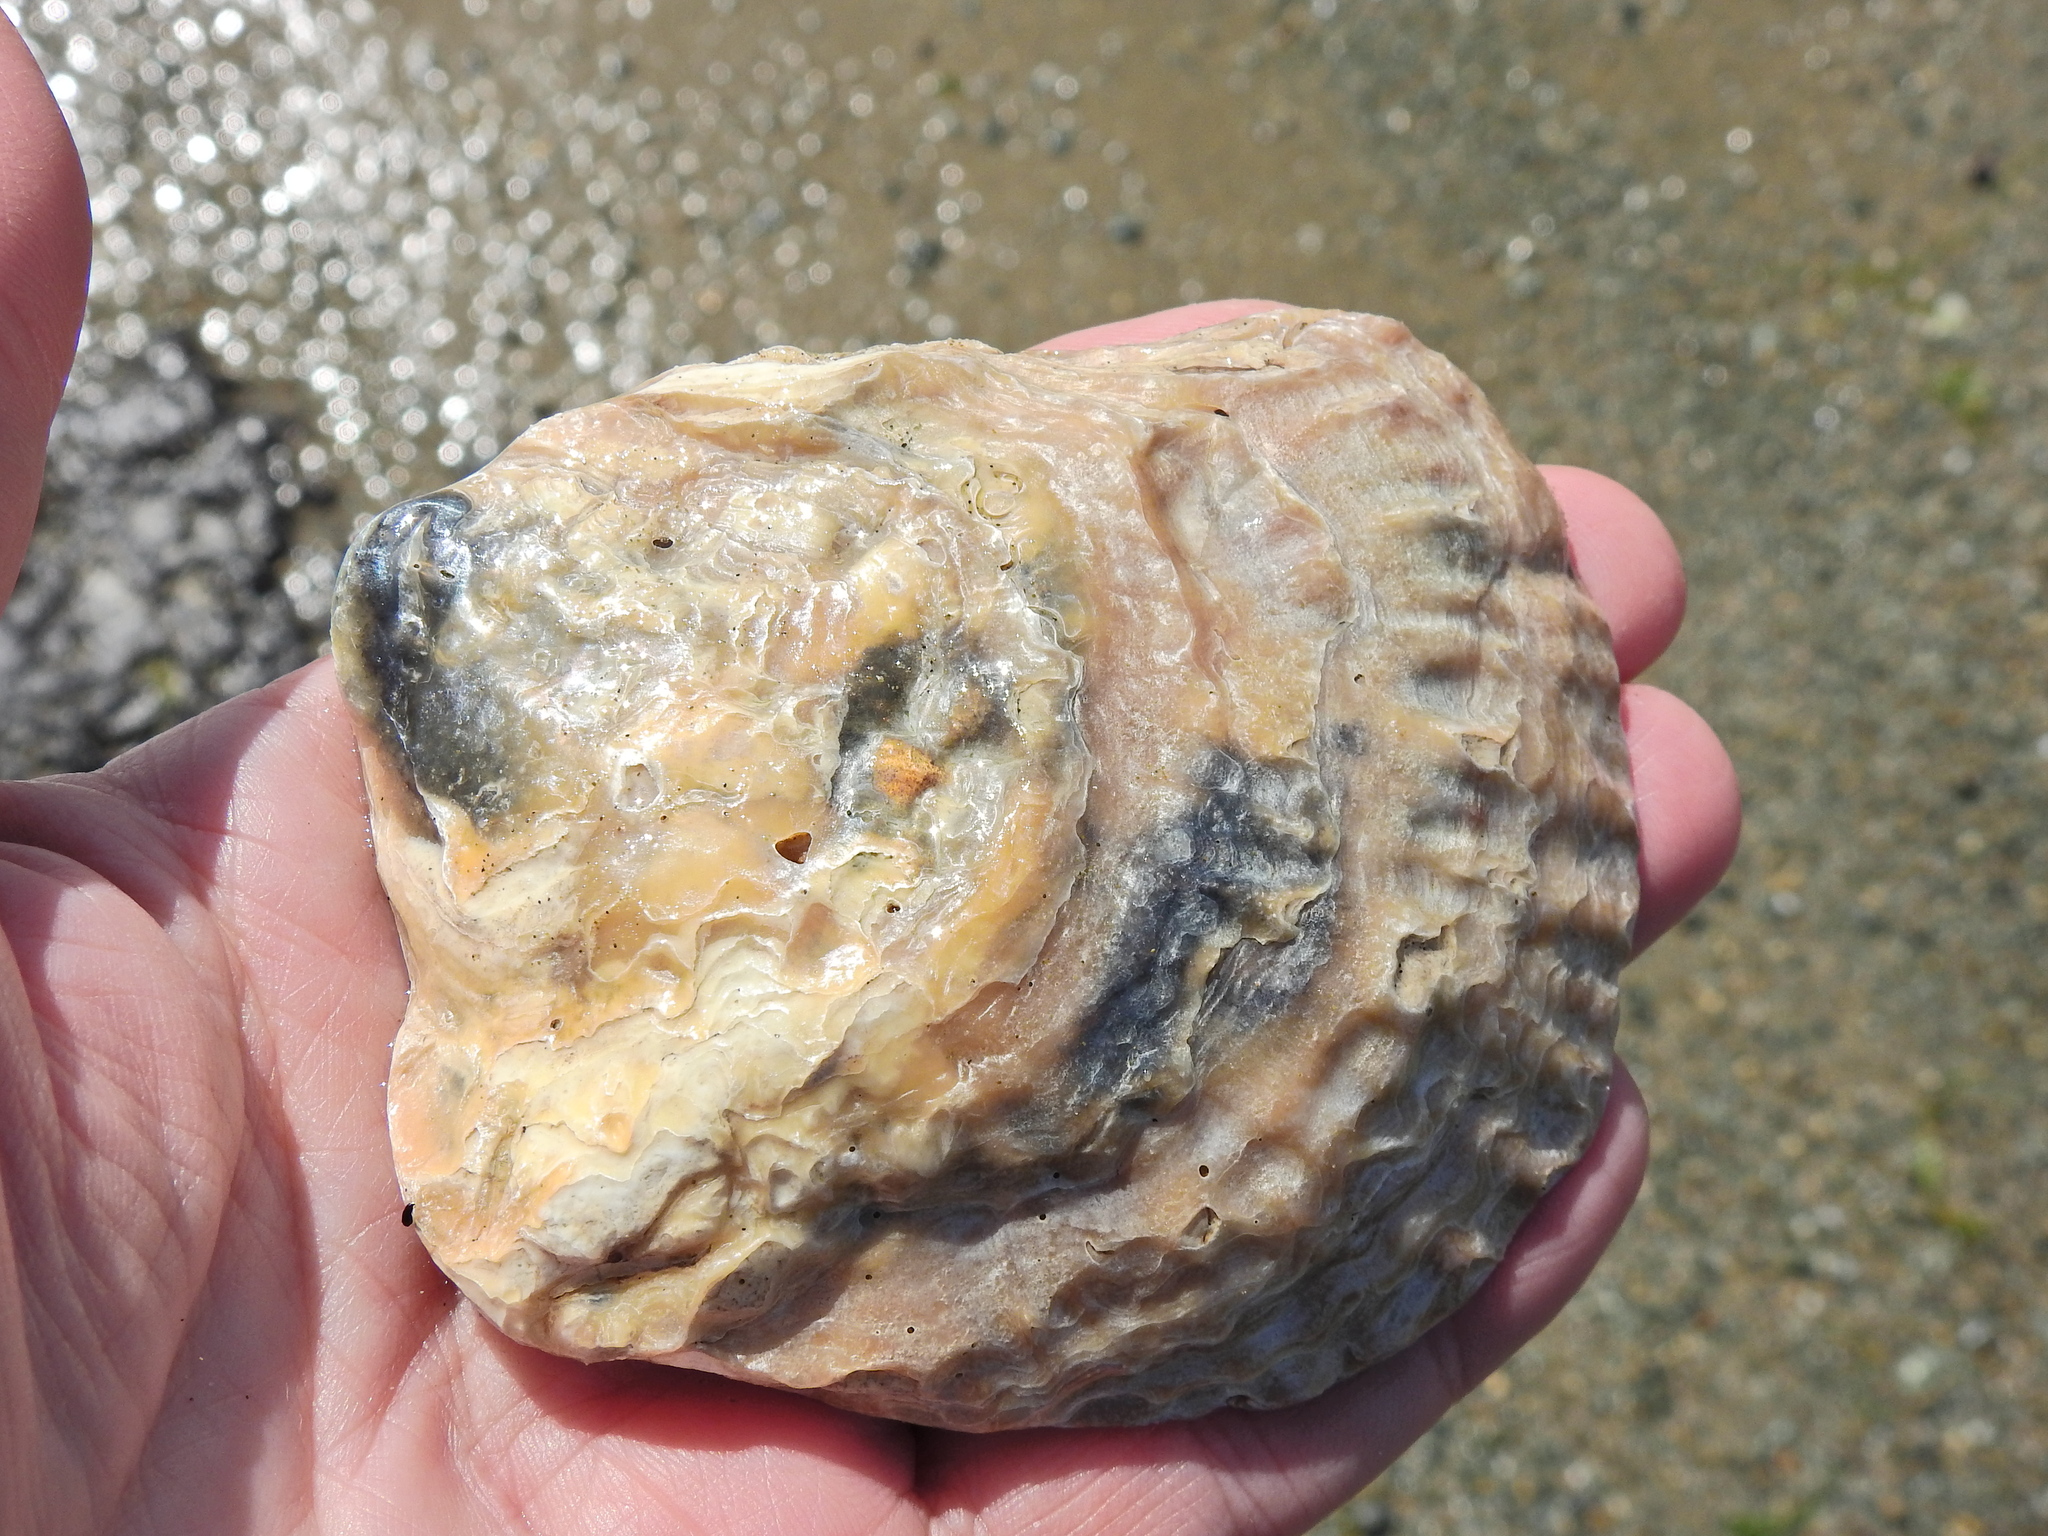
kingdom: Animalia
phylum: Mollusca
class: Bivalvia
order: Ostreida
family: Ostreidae
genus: Ostrea
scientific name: Ostrea edulis
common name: Flat oyster
